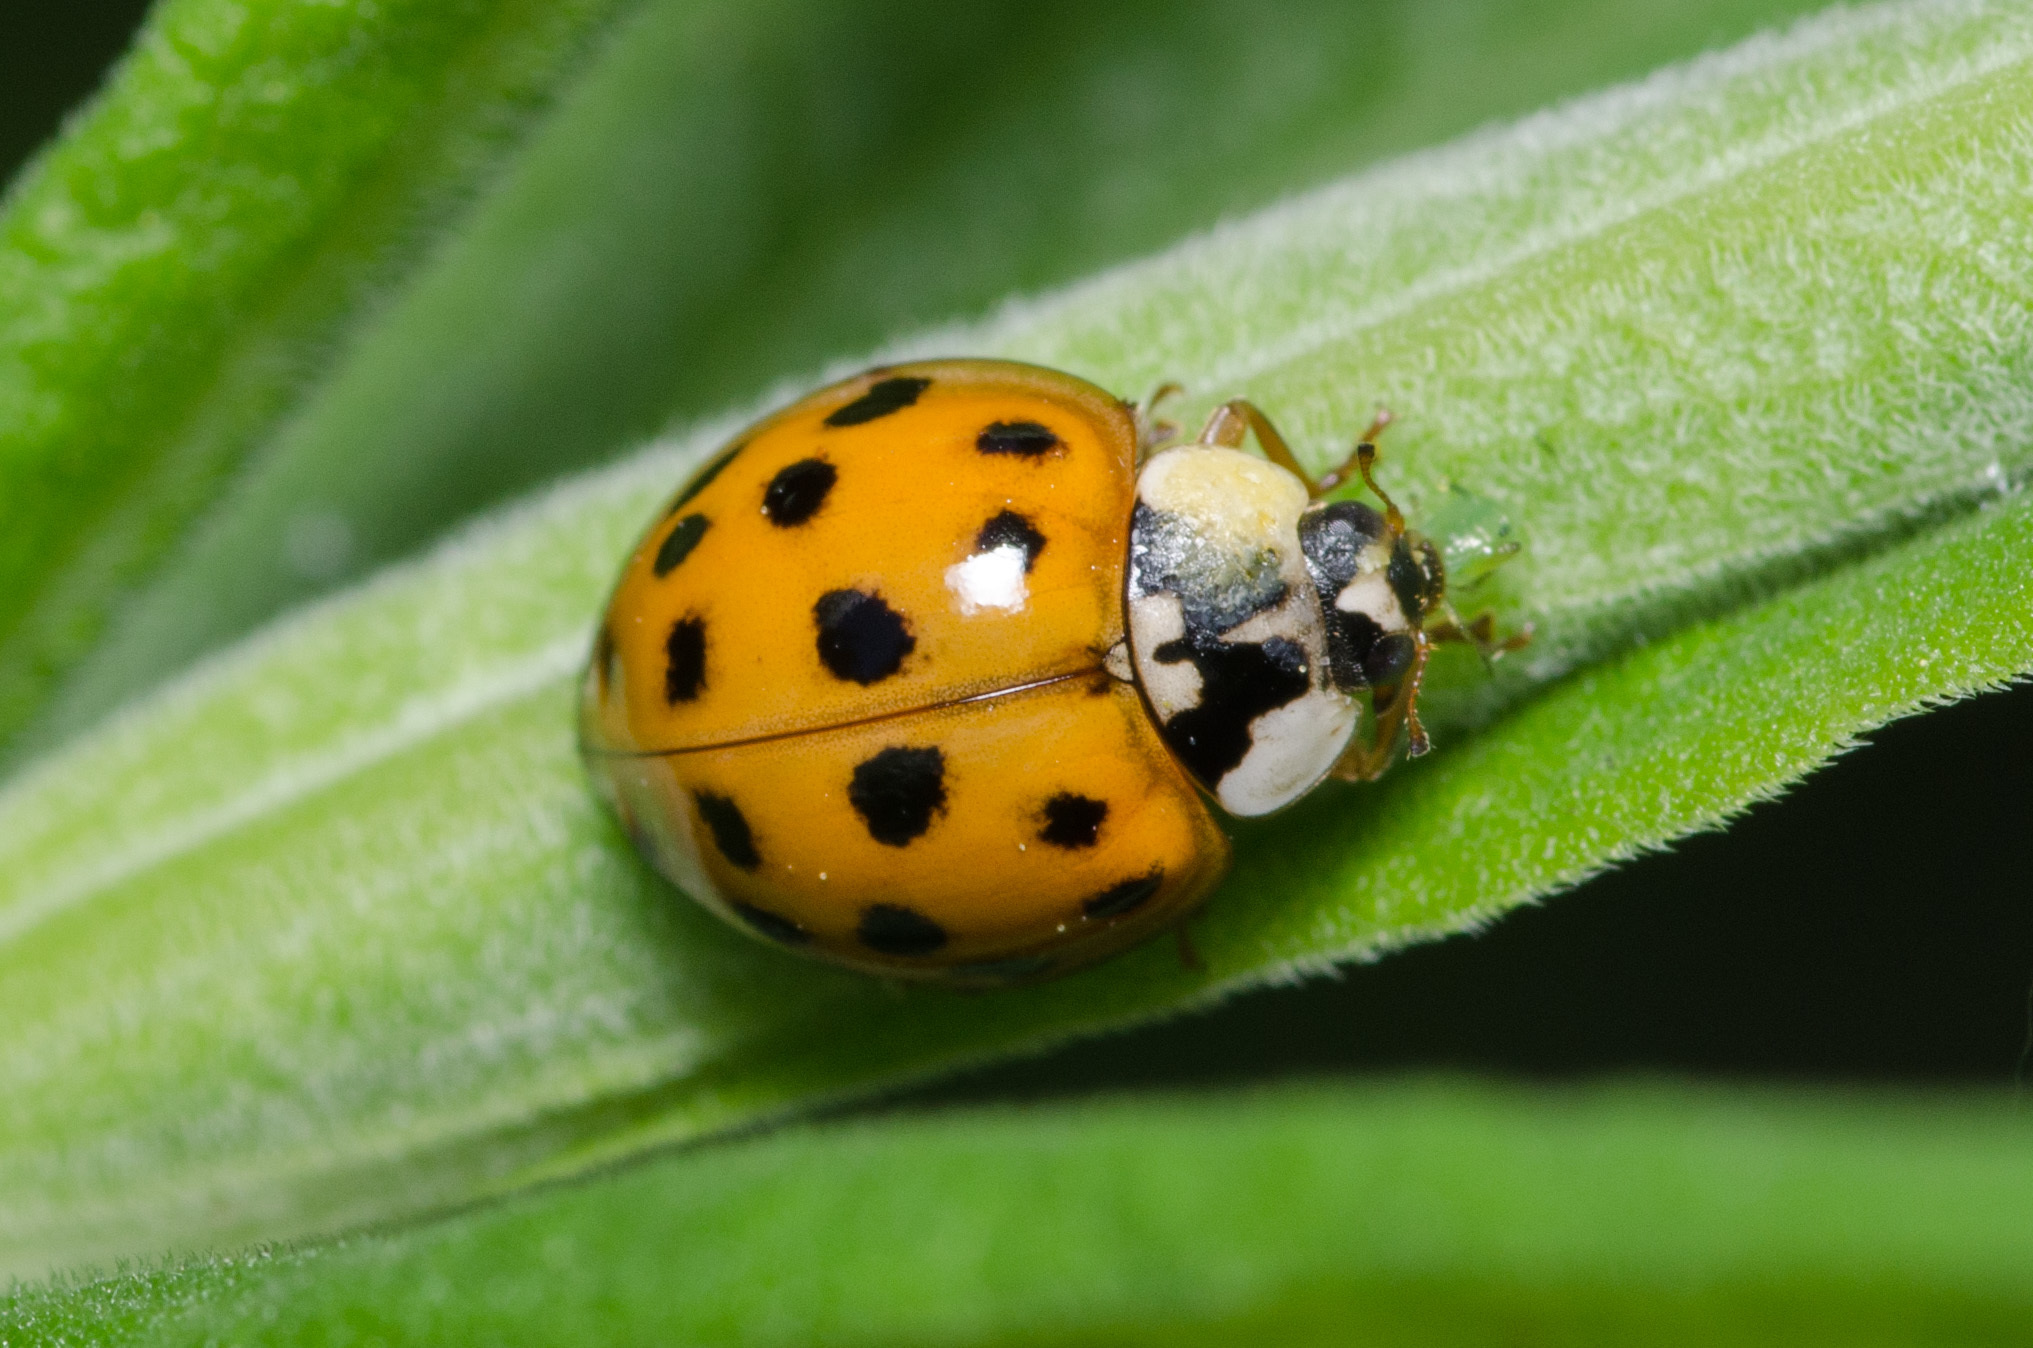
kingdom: Animalia
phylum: Arthropoda
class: Insecta
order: Coleoptera
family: Coccinellidae
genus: Harmonia
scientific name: Harmonia axyridis
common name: Harlequin ladybird
